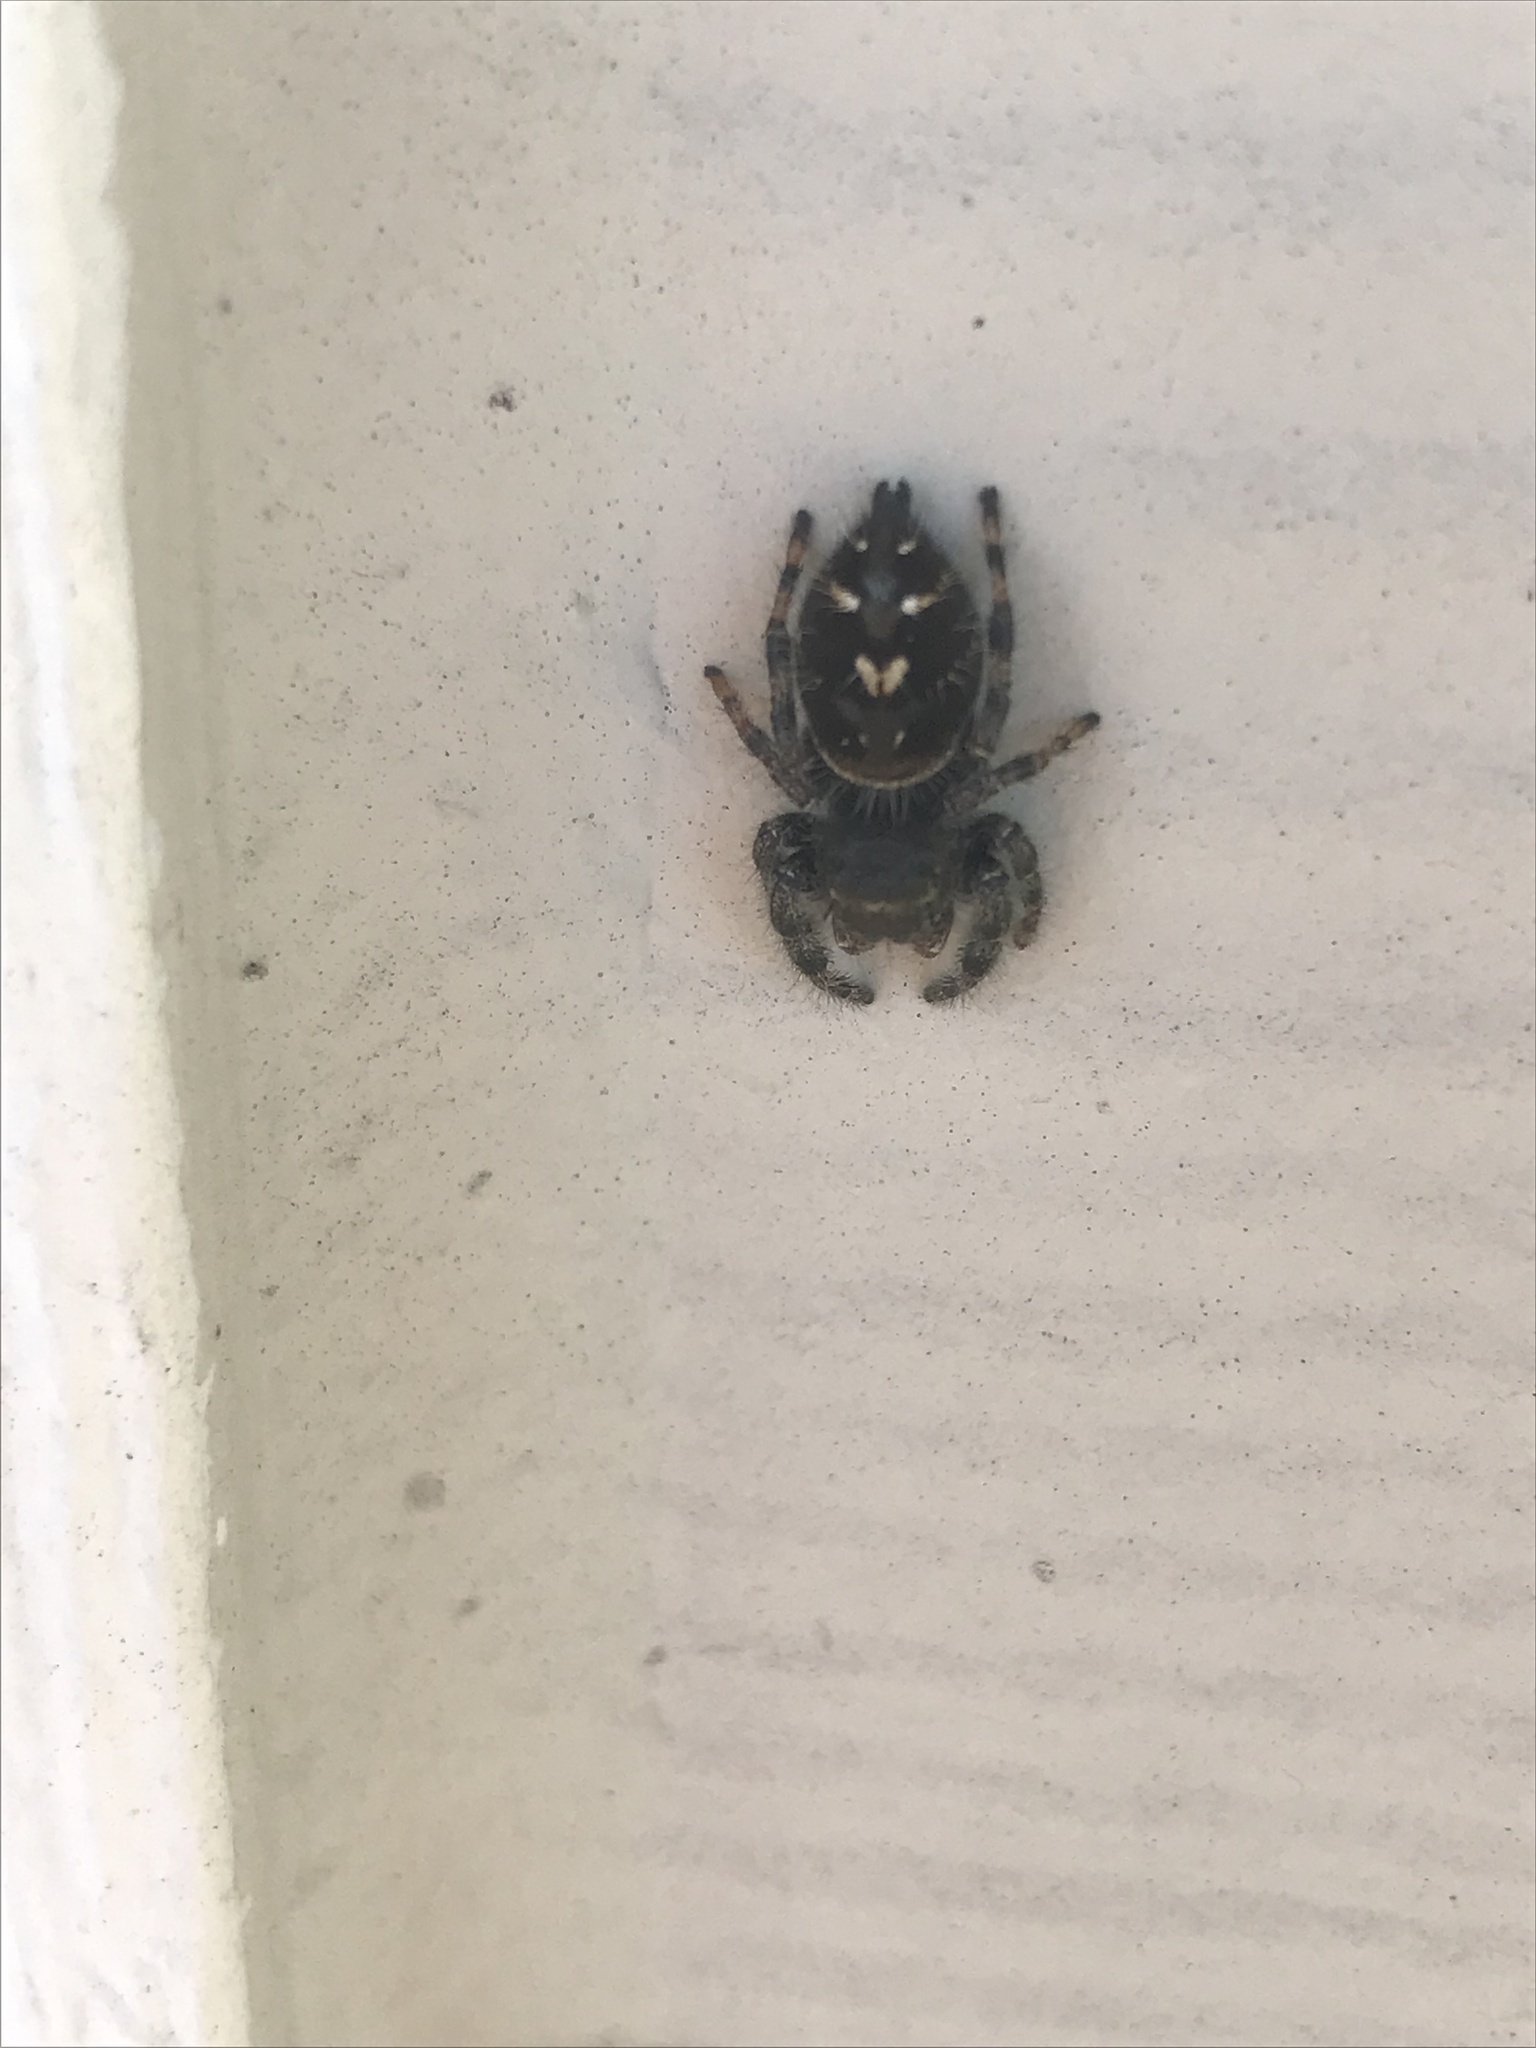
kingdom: Animalia
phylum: Arthropoda
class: Arachnida
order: Araneae
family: Salticidae
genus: Phidippus
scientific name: Phidippus audax
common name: Bold jumper
